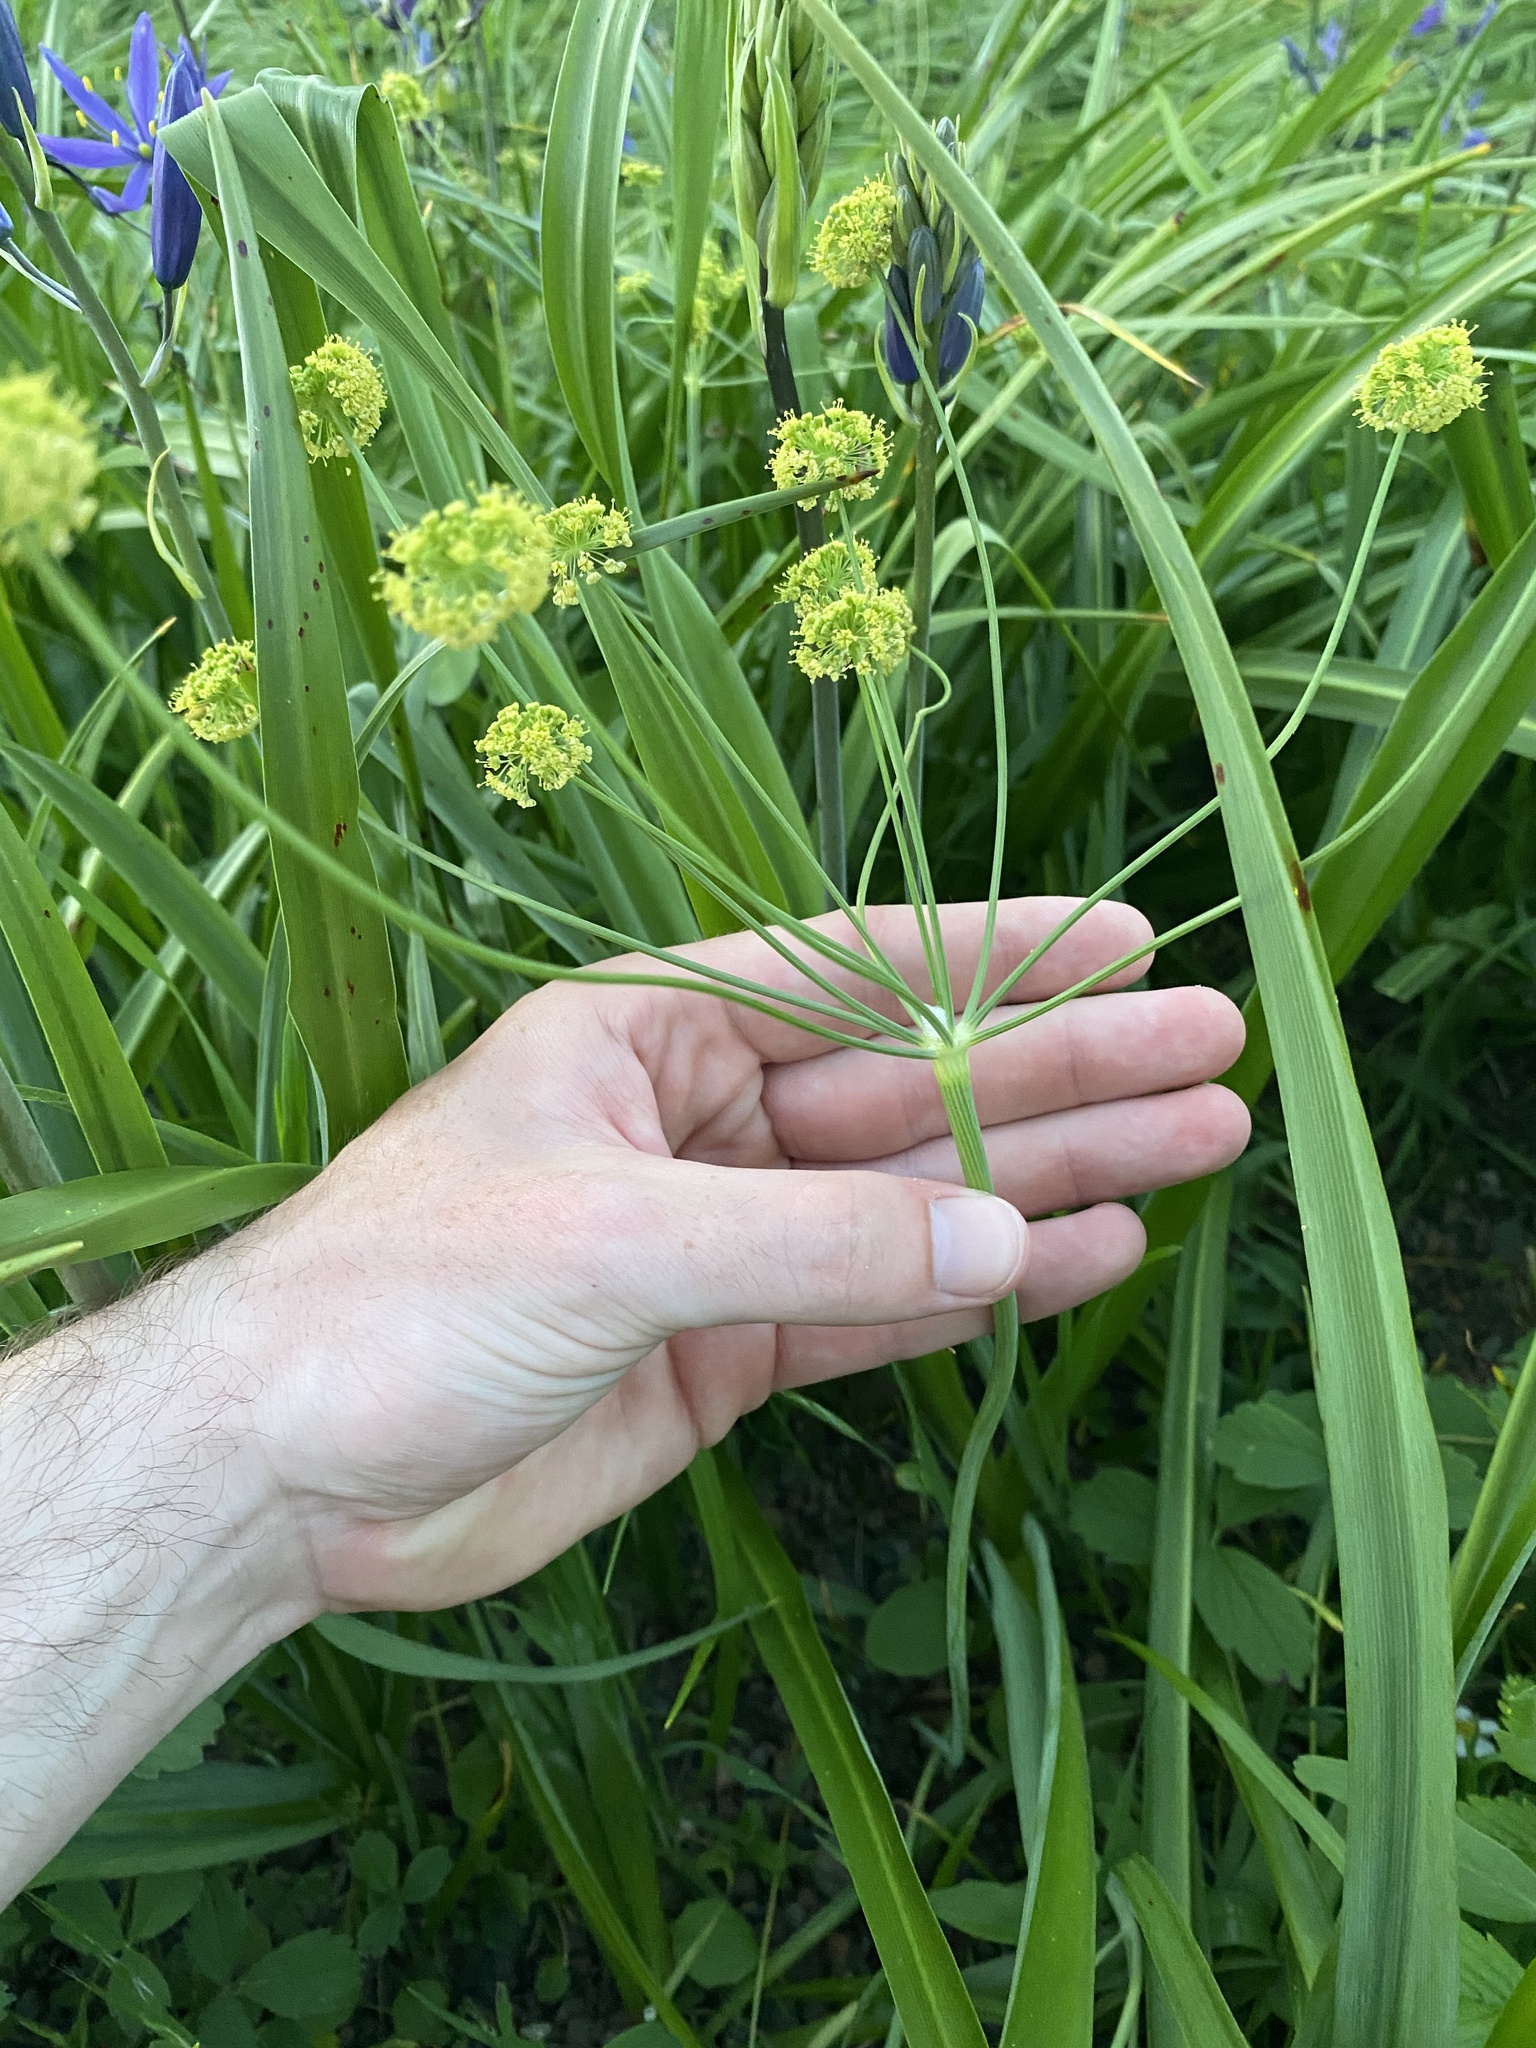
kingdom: Plantae
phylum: Tracheophyta
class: Magnoliopsida
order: Apiales
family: Apiaceae
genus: Lomatium
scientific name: Lomatium nudicaule
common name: Pestle lomatium
